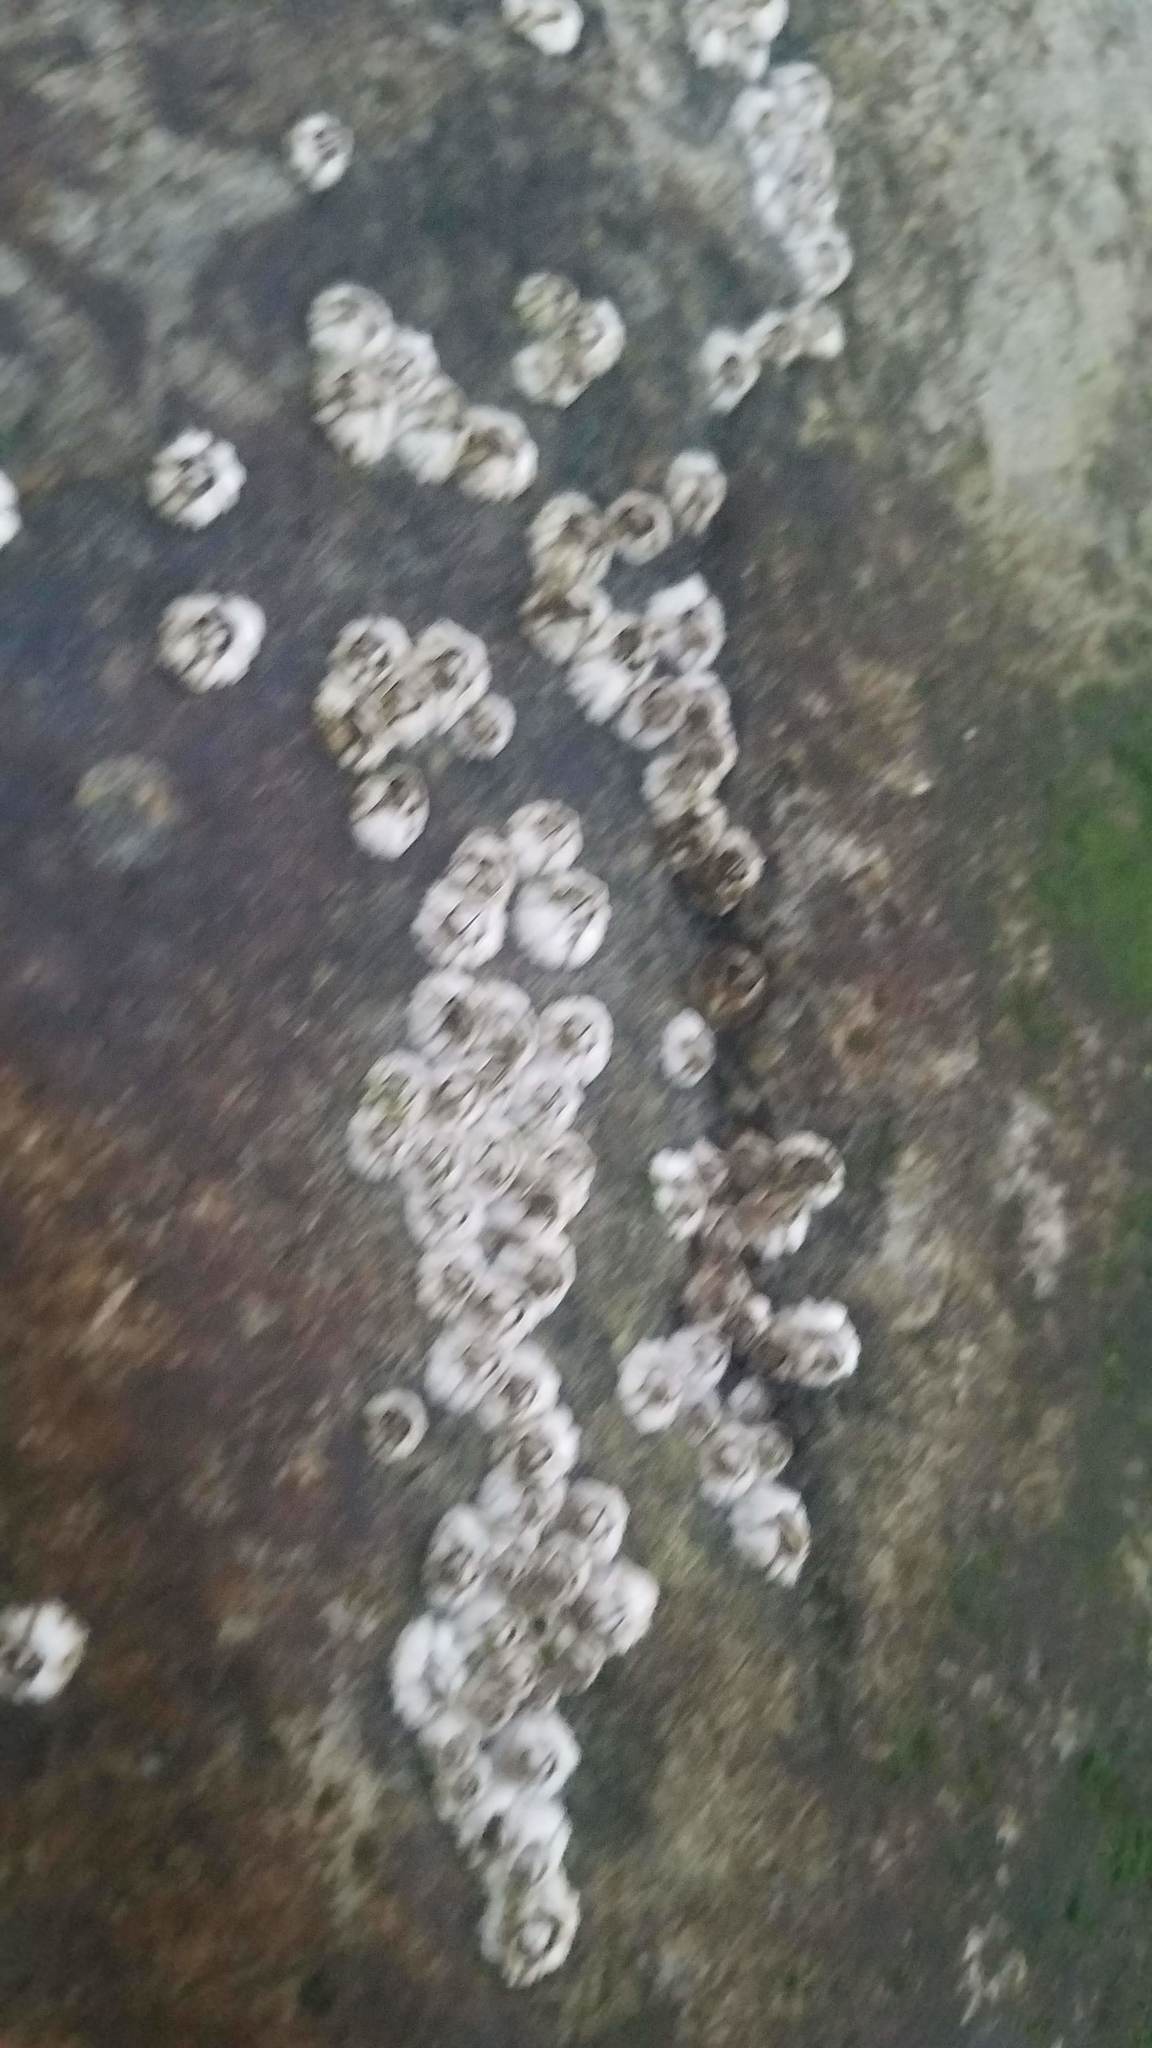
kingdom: Animalia
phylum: Arthropoda
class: Maxillopoda
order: Sessilia
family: Archaeobalanidae
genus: Semibalanus
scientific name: Semibalanus balanoides
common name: Acorn barnacle
